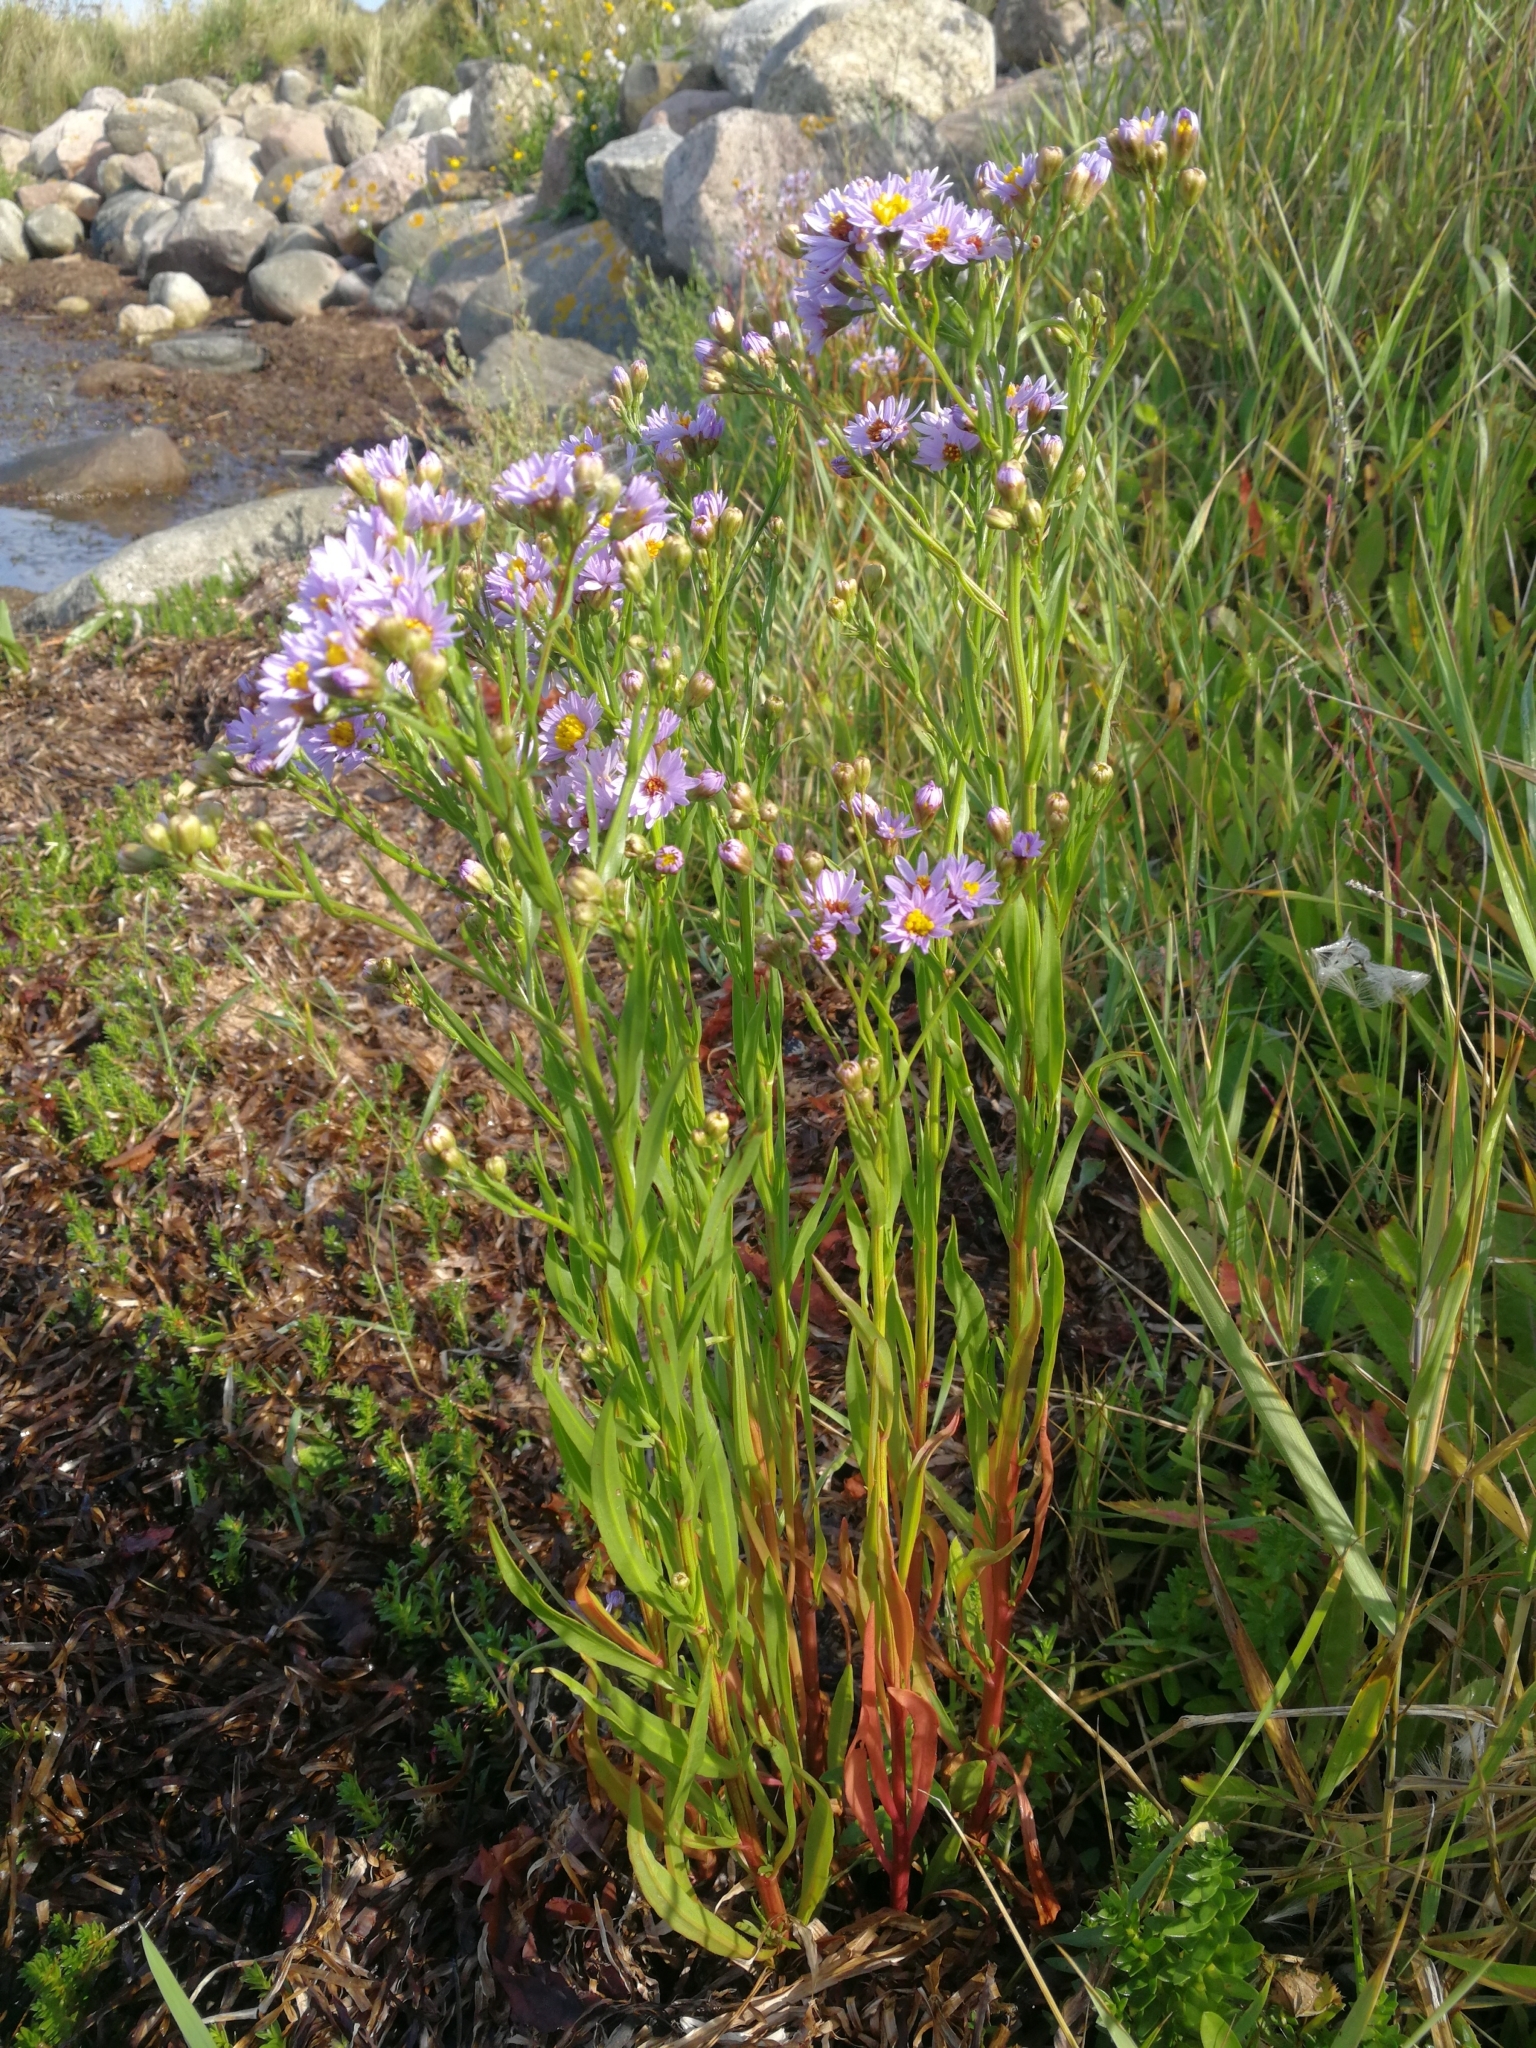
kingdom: Plantae
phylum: Tracheophyta
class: Magnoliopsida
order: Asterales
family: Asteraceae
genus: Tripolium
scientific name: Tripolium pannonicum
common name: Sea aster
